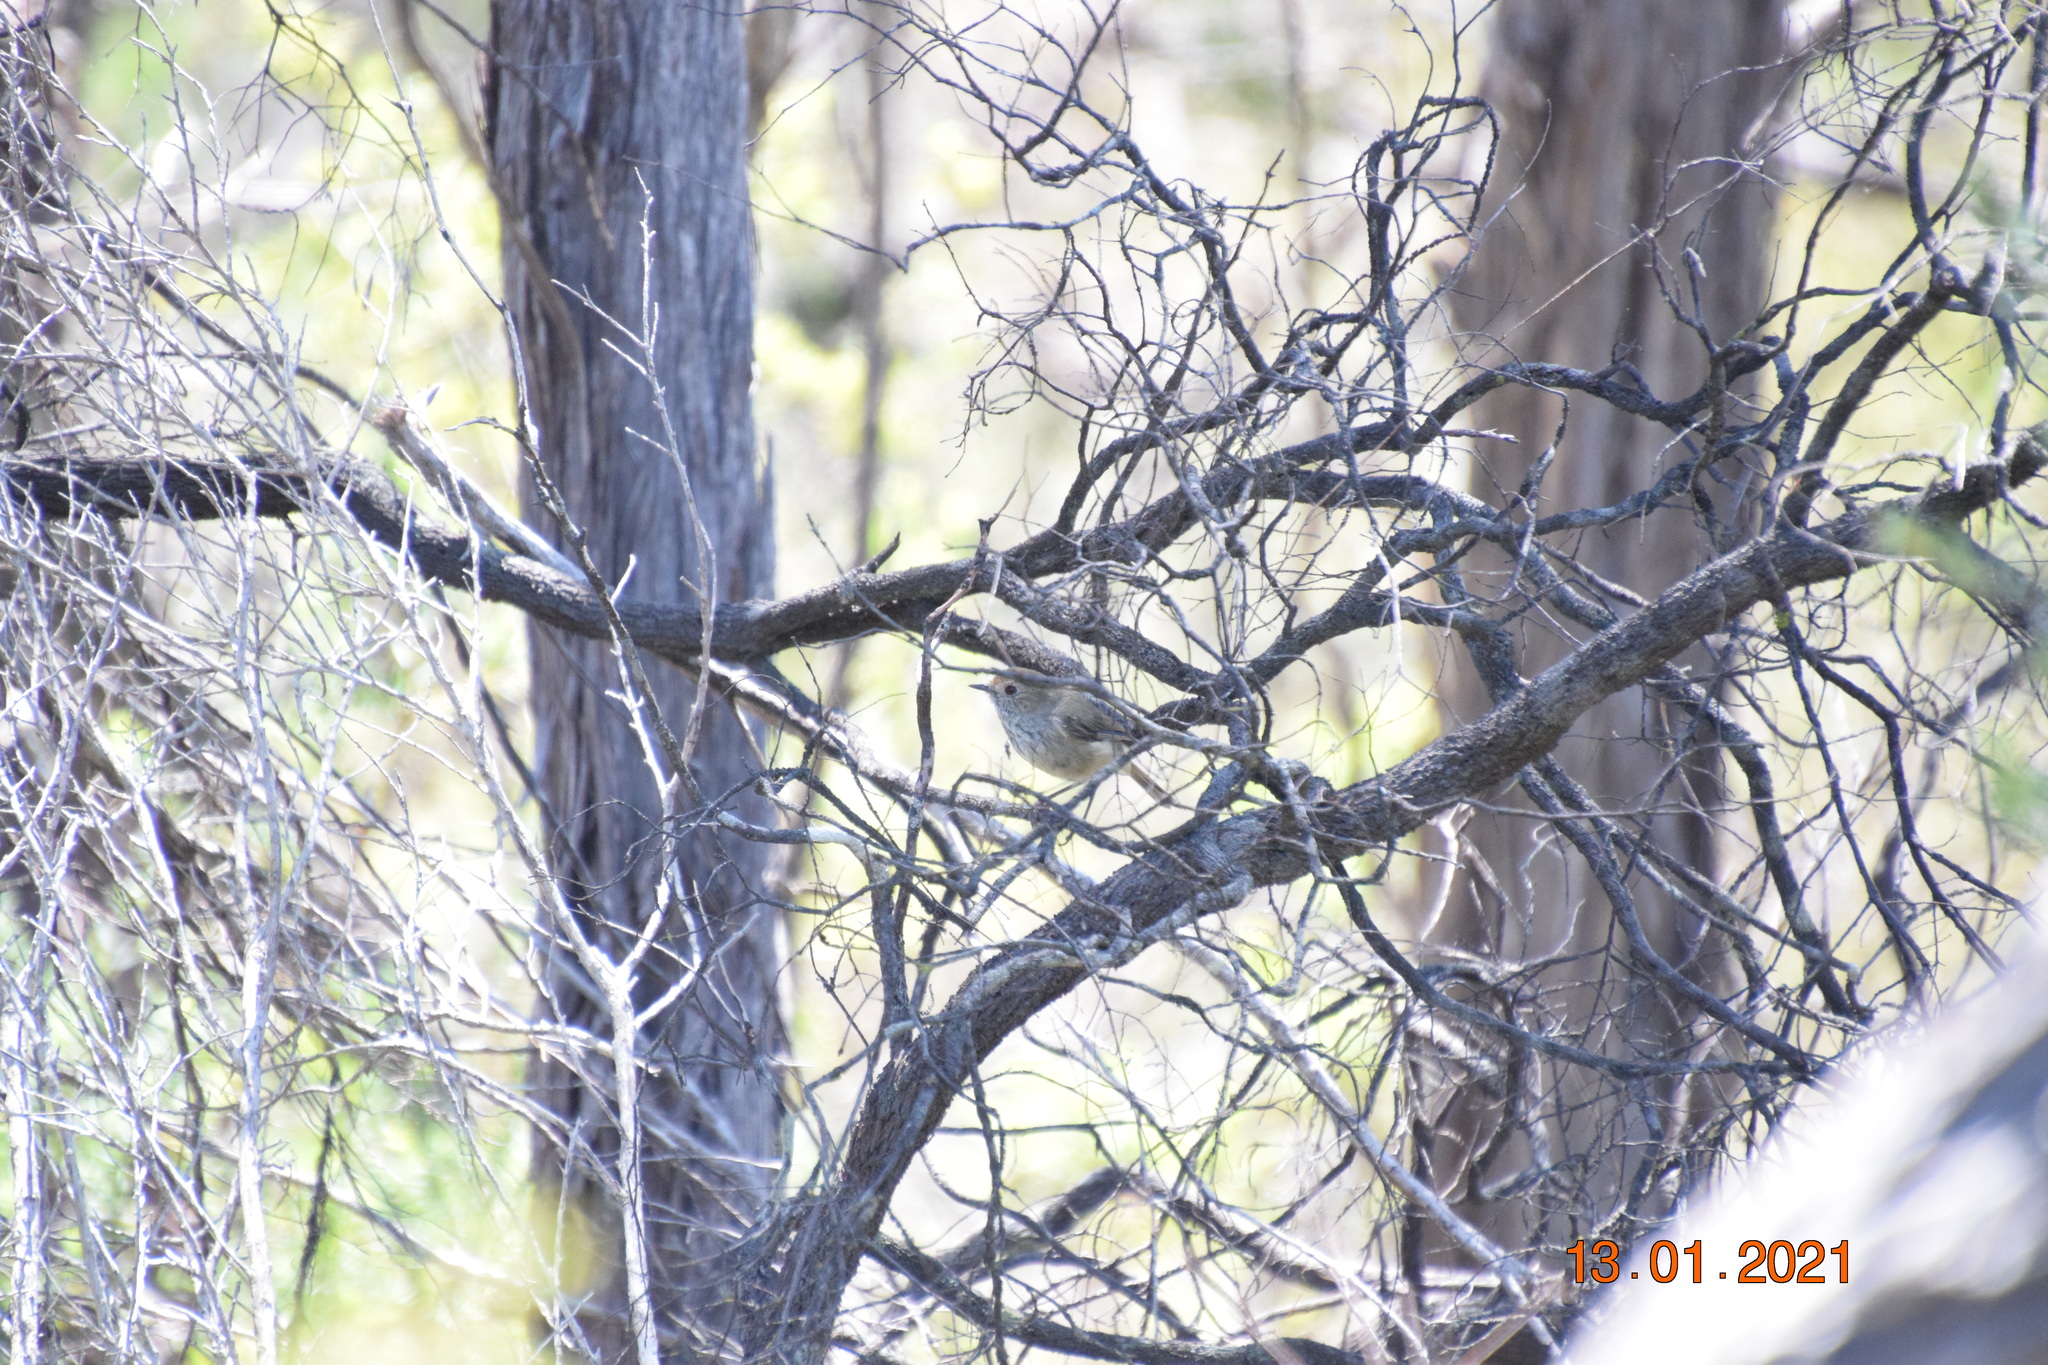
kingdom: Animalia
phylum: Chordata
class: Aves
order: Passeriformes
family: Acanthizidae
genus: Acanthiza
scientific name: Acanthiza pusilla
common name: Brown thornbill
